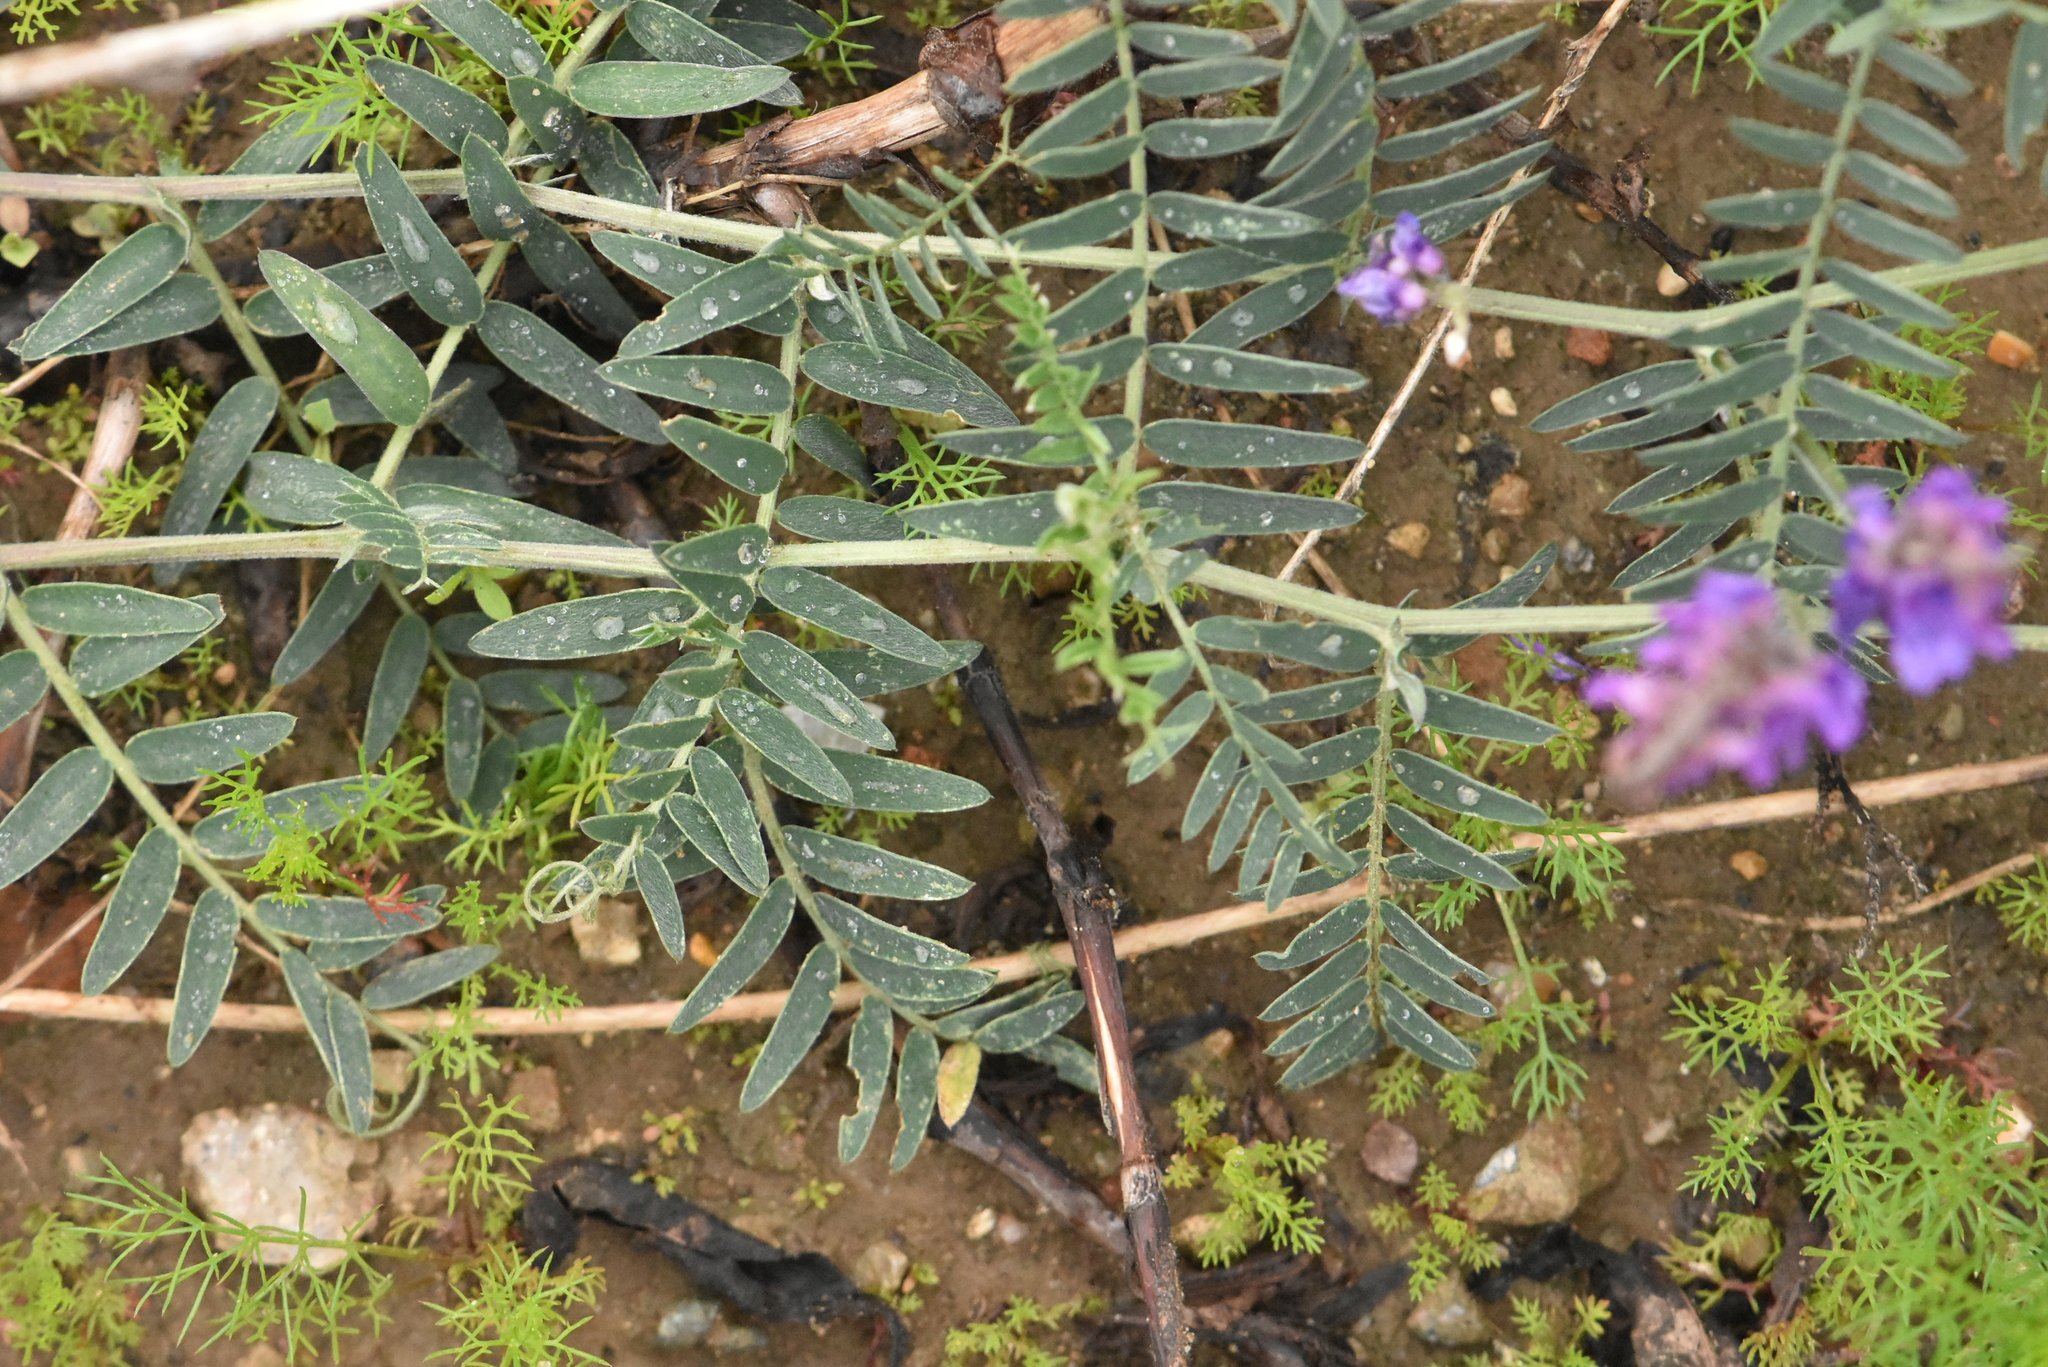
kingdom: Plantae
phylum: Tracheophyta
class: Magnoliopsida
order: Fabales
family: Fabaceae
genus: Vicia
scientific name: Vicia cracca
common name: Bird vetch
